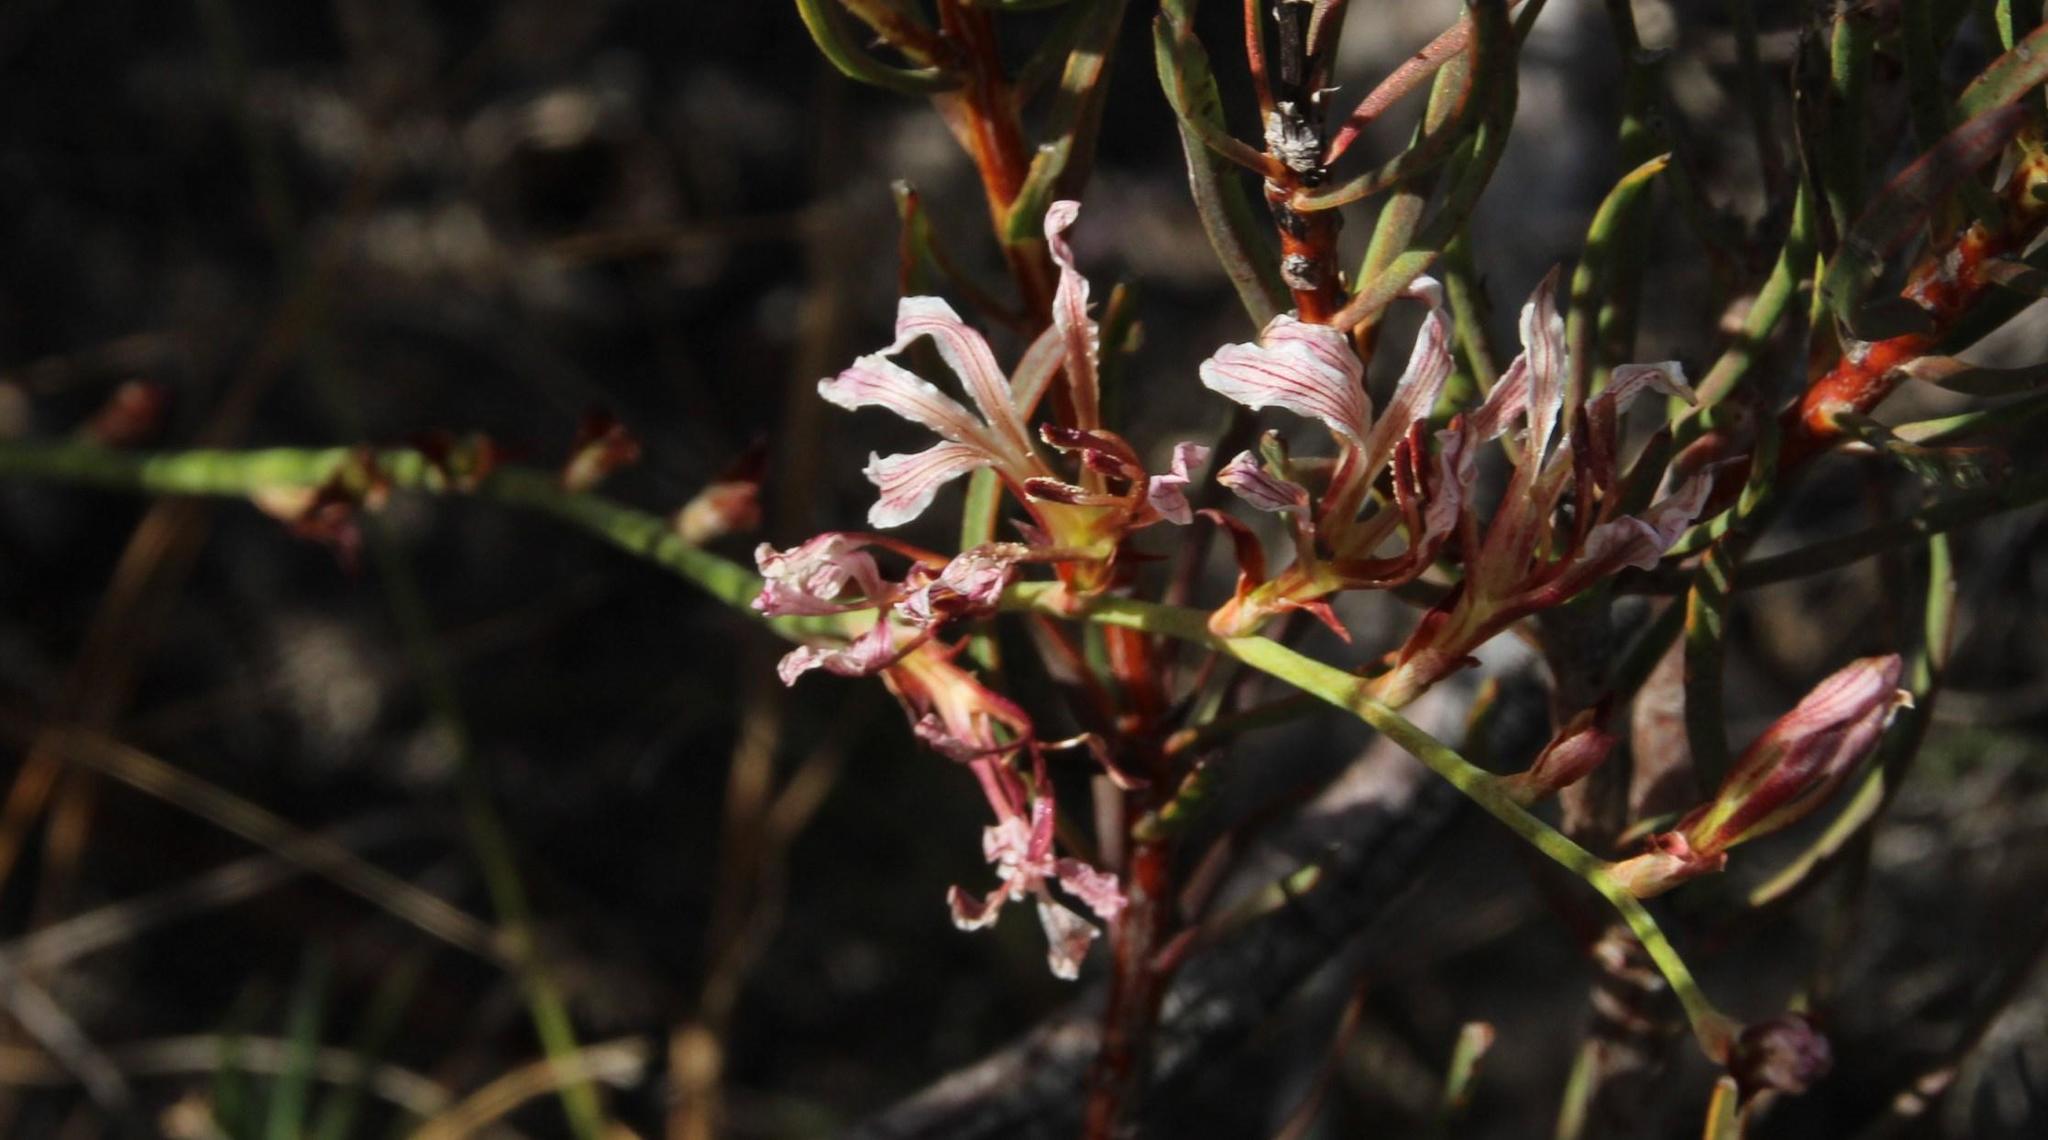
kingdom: Plantae
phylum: Tracheophyta
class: Liliopsida
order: Asparagales
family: Iridaceae
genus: Tritoniopsis
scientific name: Tritoniopsis elongata
